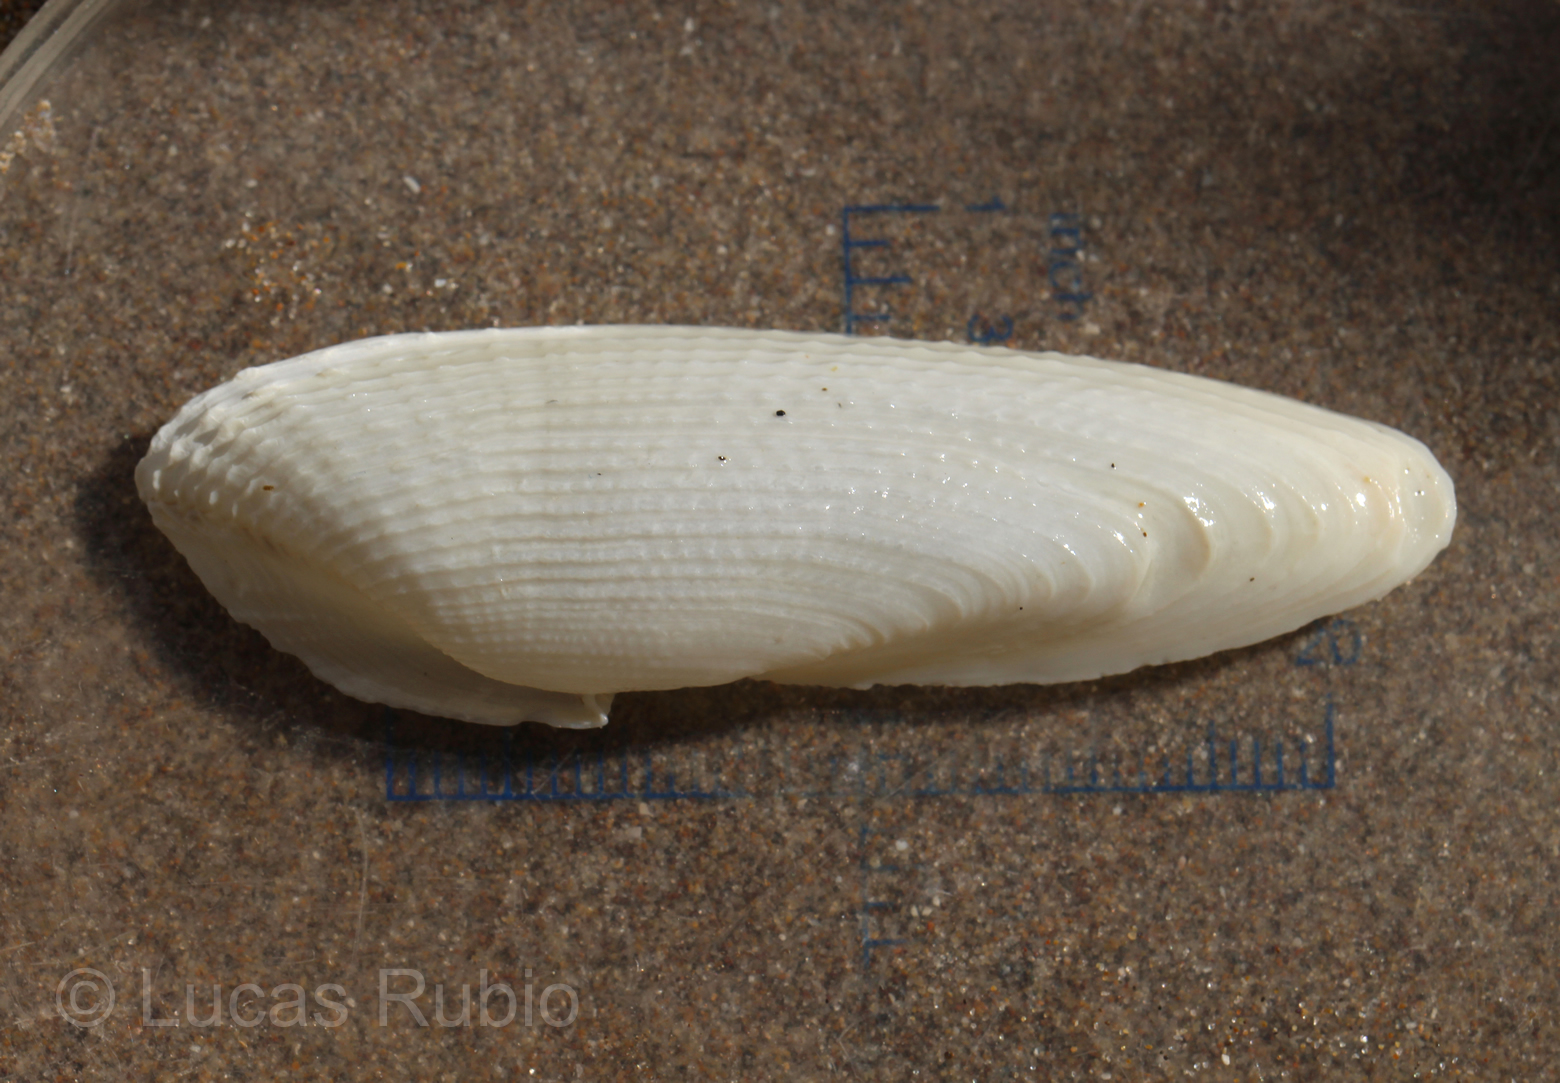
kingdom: Animalia
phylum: Mollusca
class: Bivalvia
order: Myida
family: Pholadidae
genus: Cyrtopleura
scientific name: Cyrtopleura lanceolata
